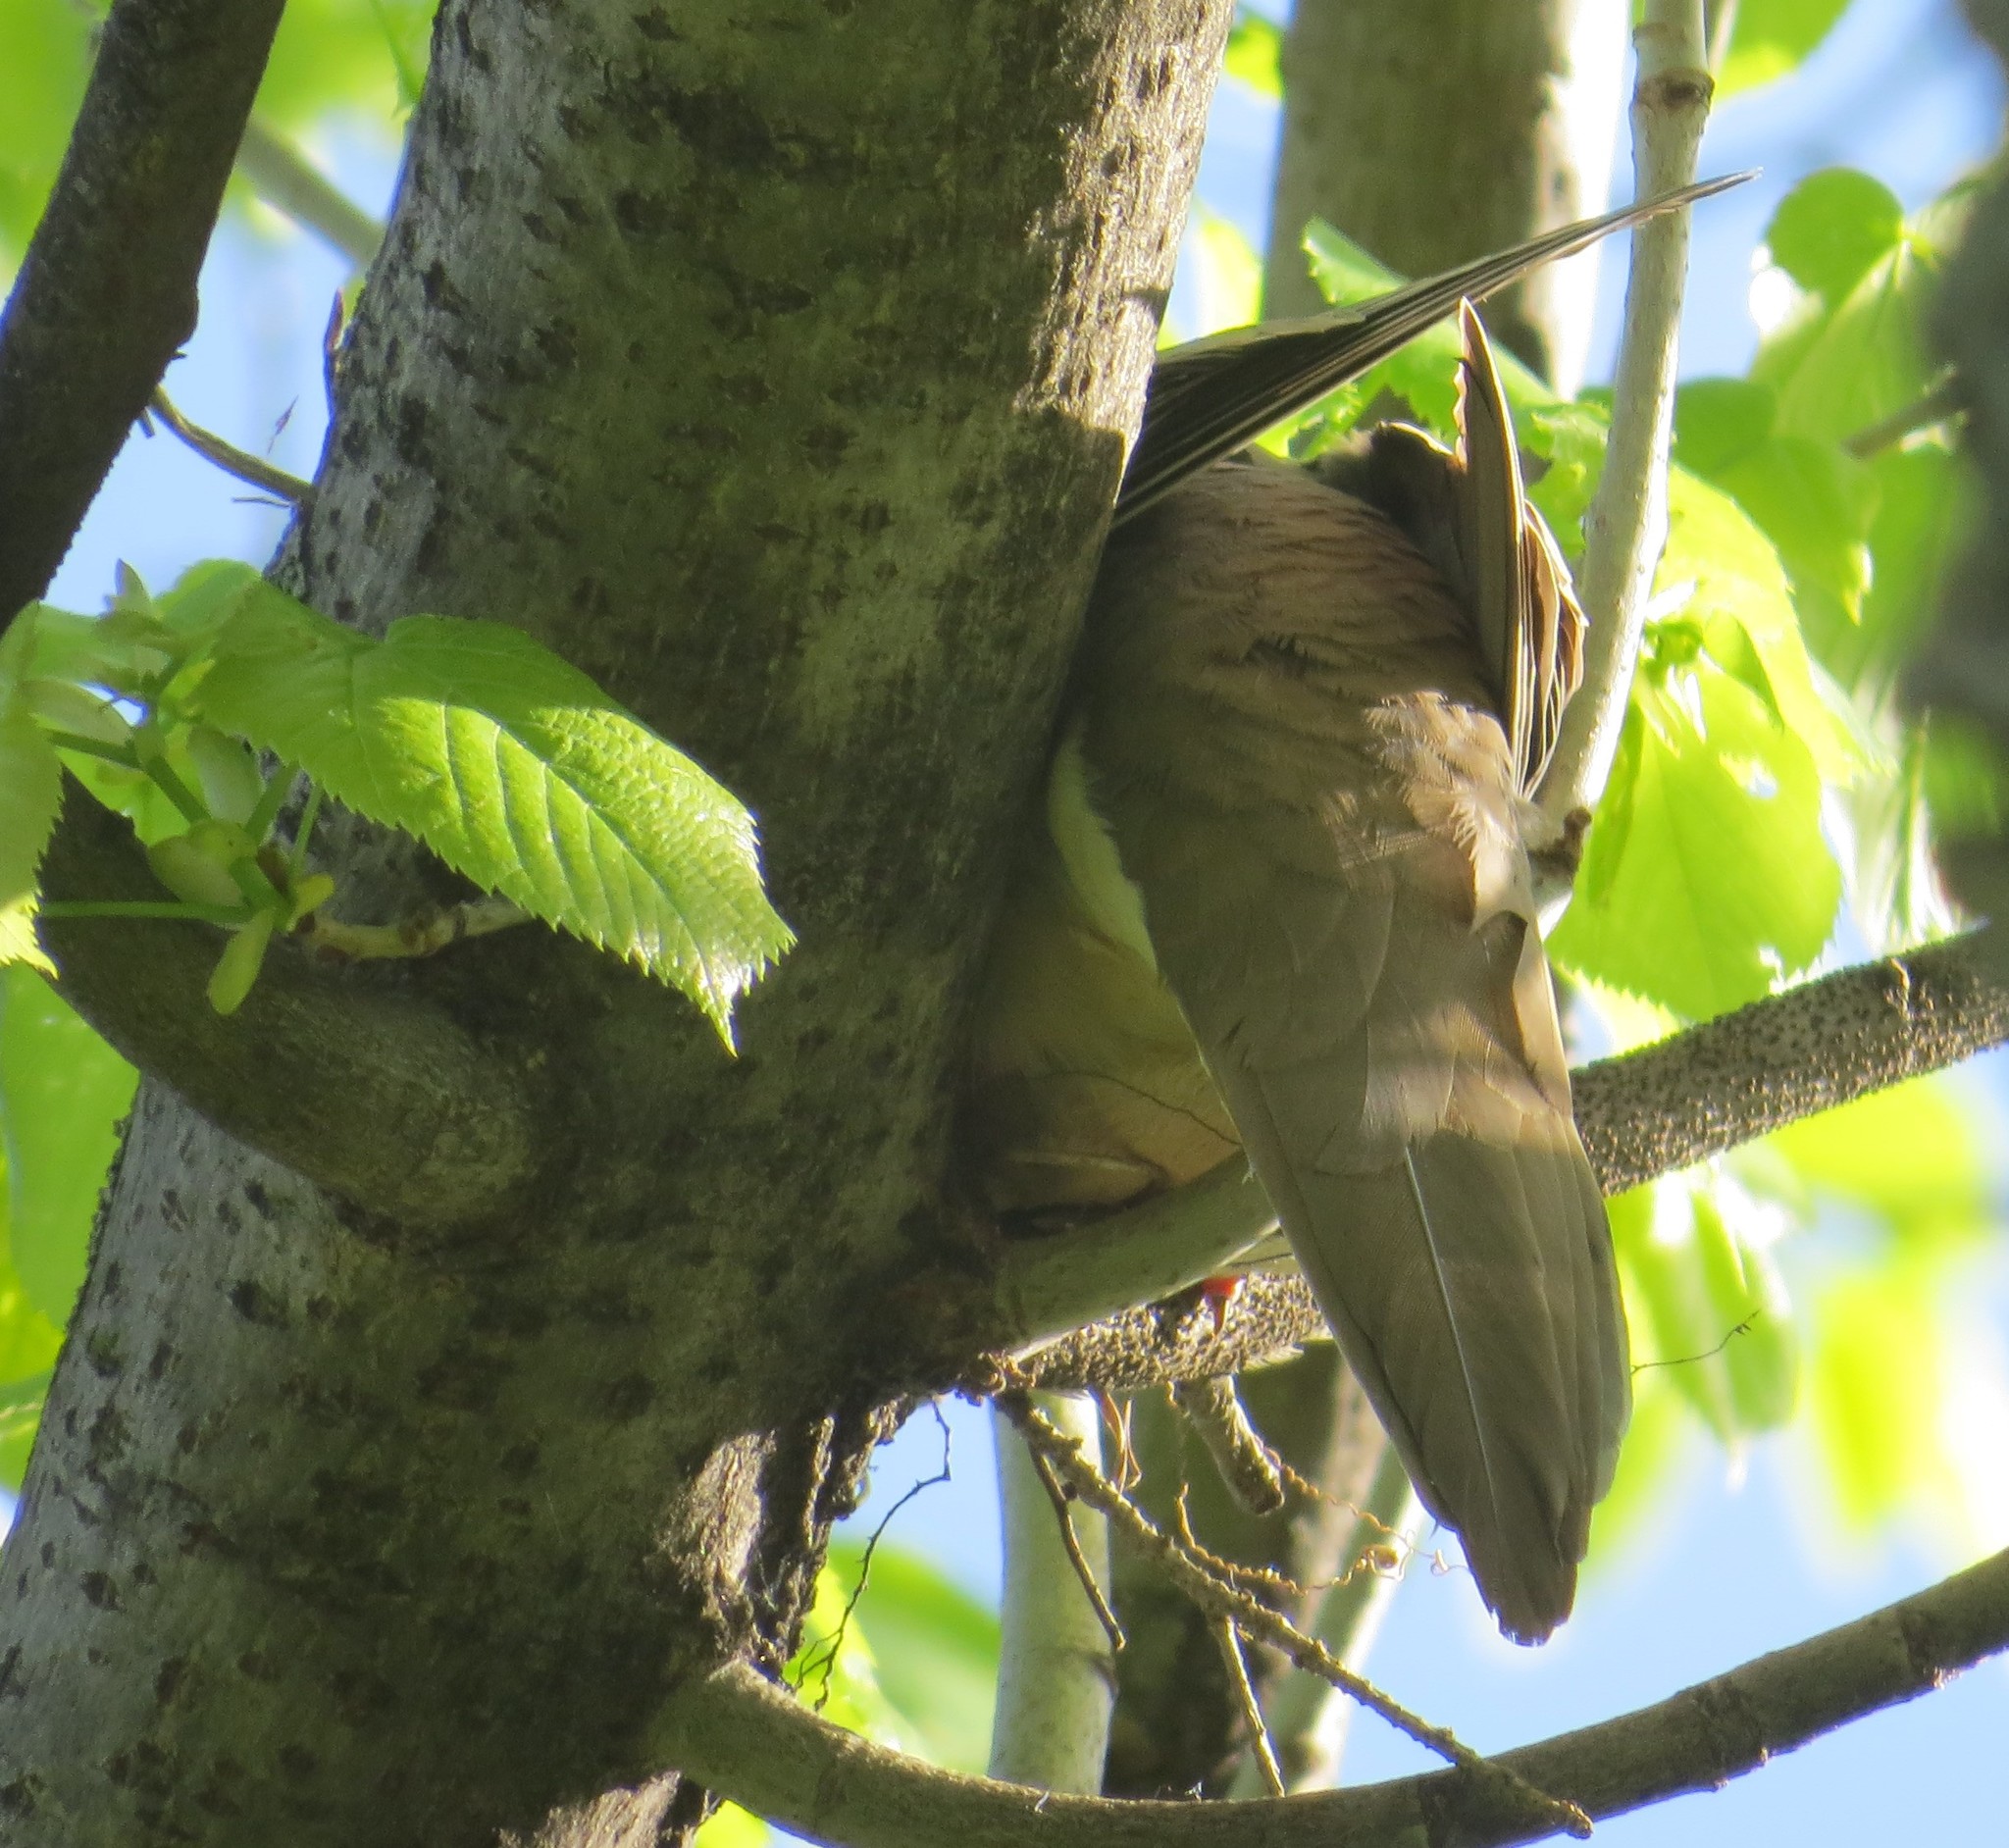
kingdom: Animalia
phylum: Chordata
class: Aves
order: Columbiformes
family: Columbidae
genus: Zenaida
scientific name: Zenaida macroura
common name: Mourning dove
